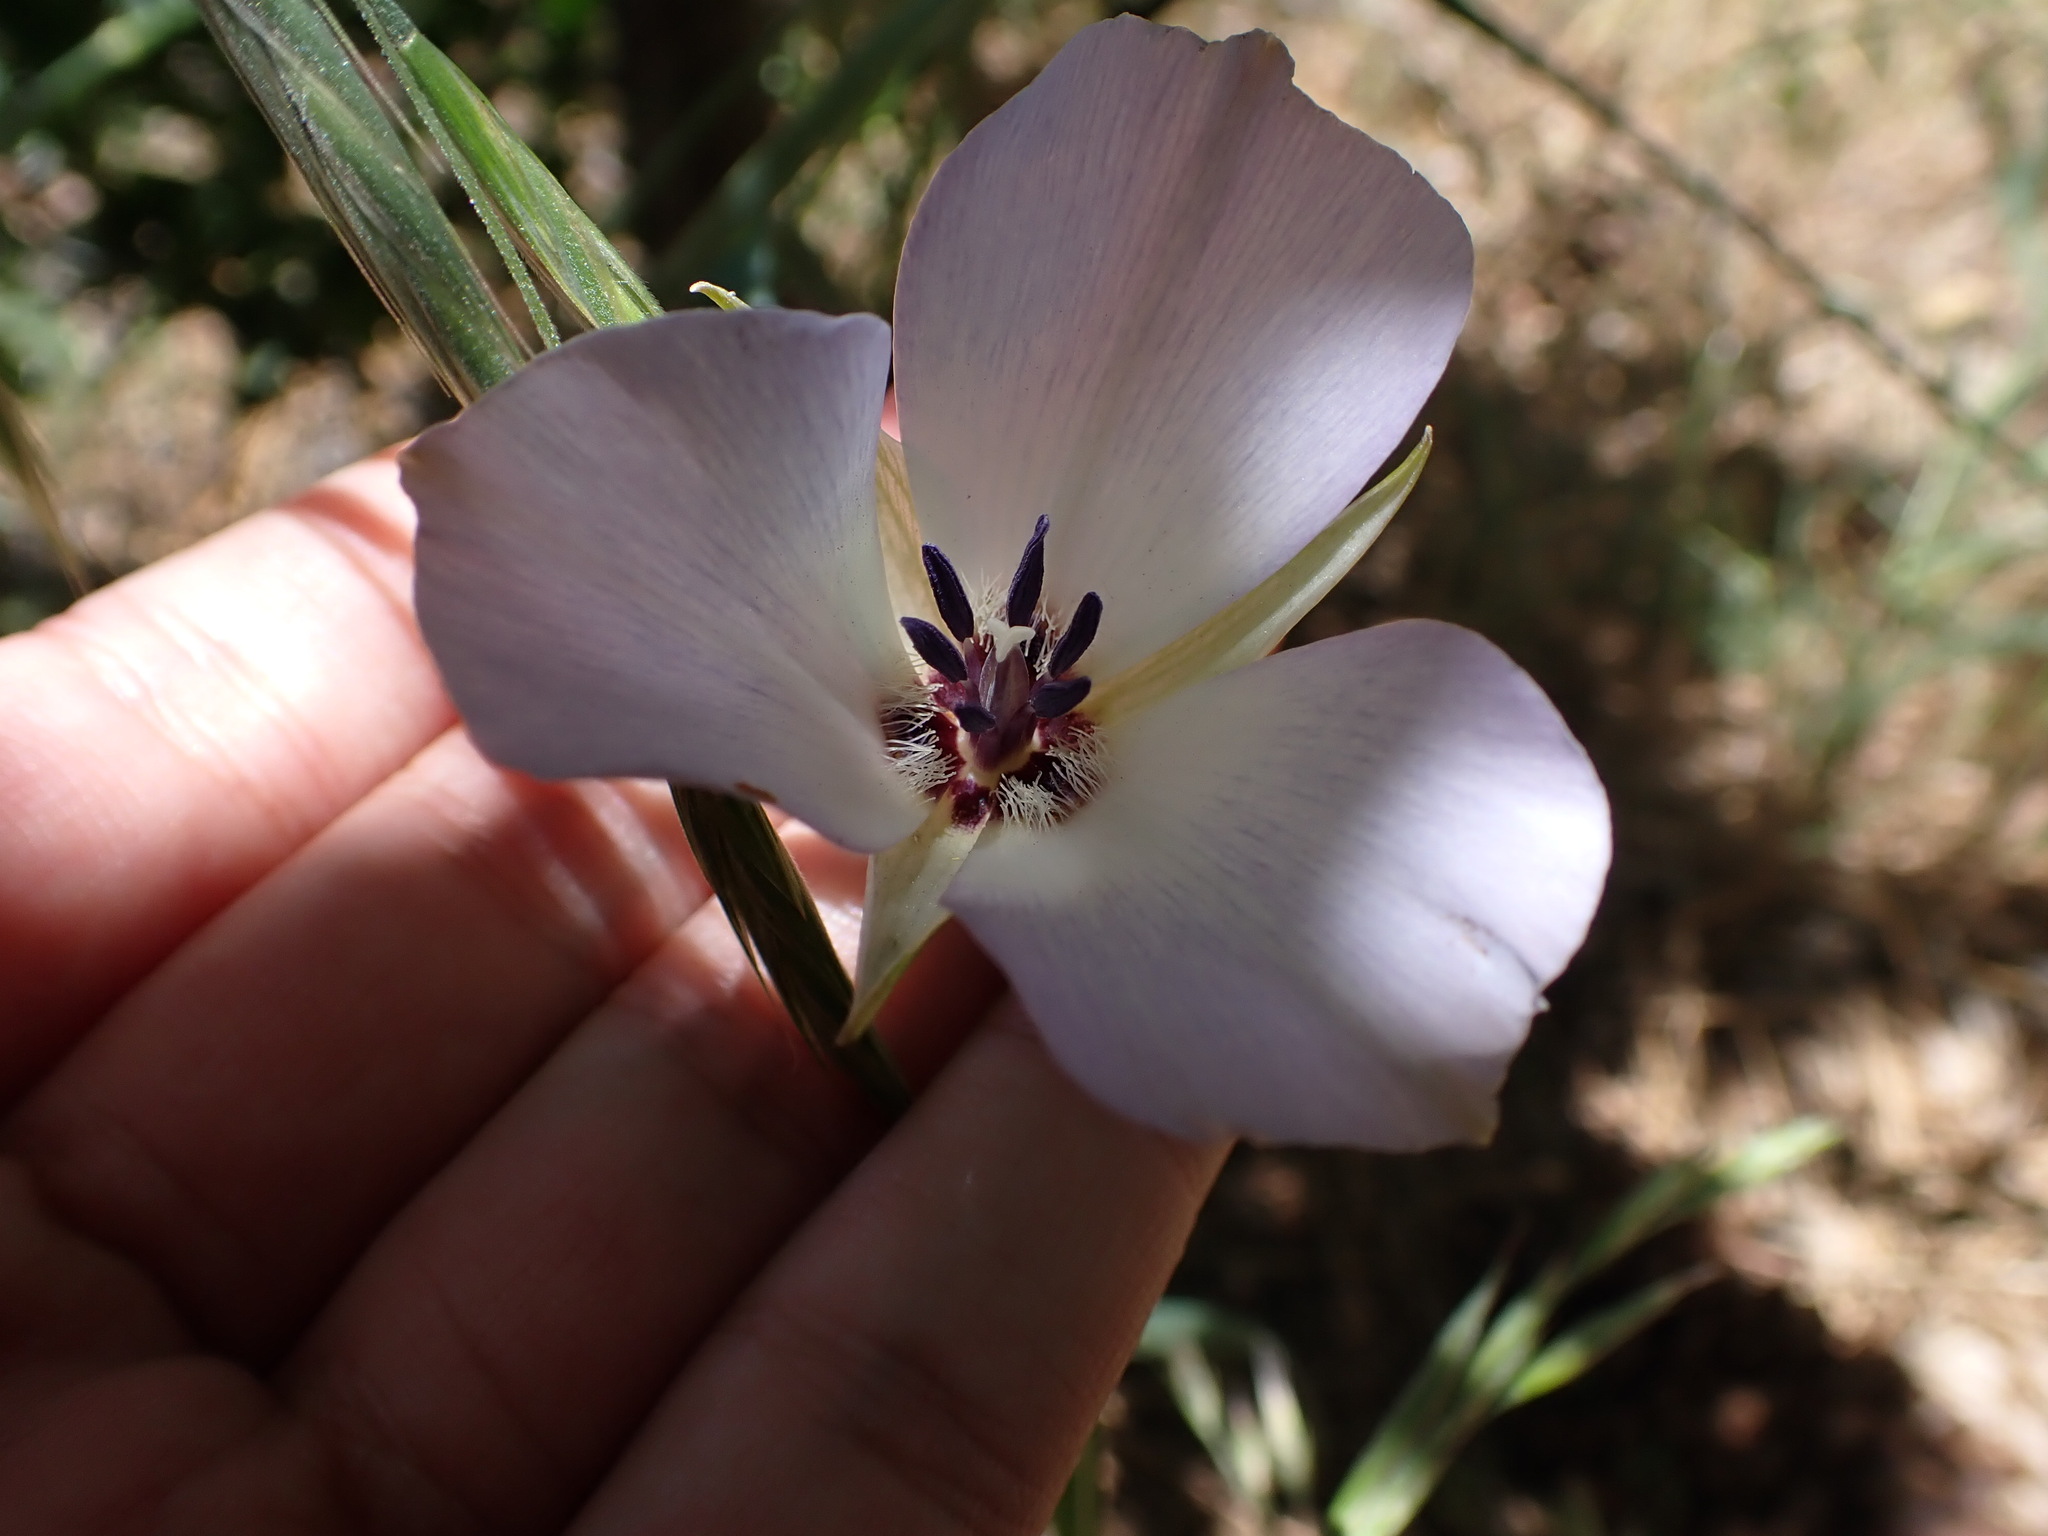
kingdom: Plantae
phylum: Tracheophyta
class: Liliopsida
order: Liliales
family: Liliaceae
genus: Calochortus
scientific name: Calochortus invenustus
